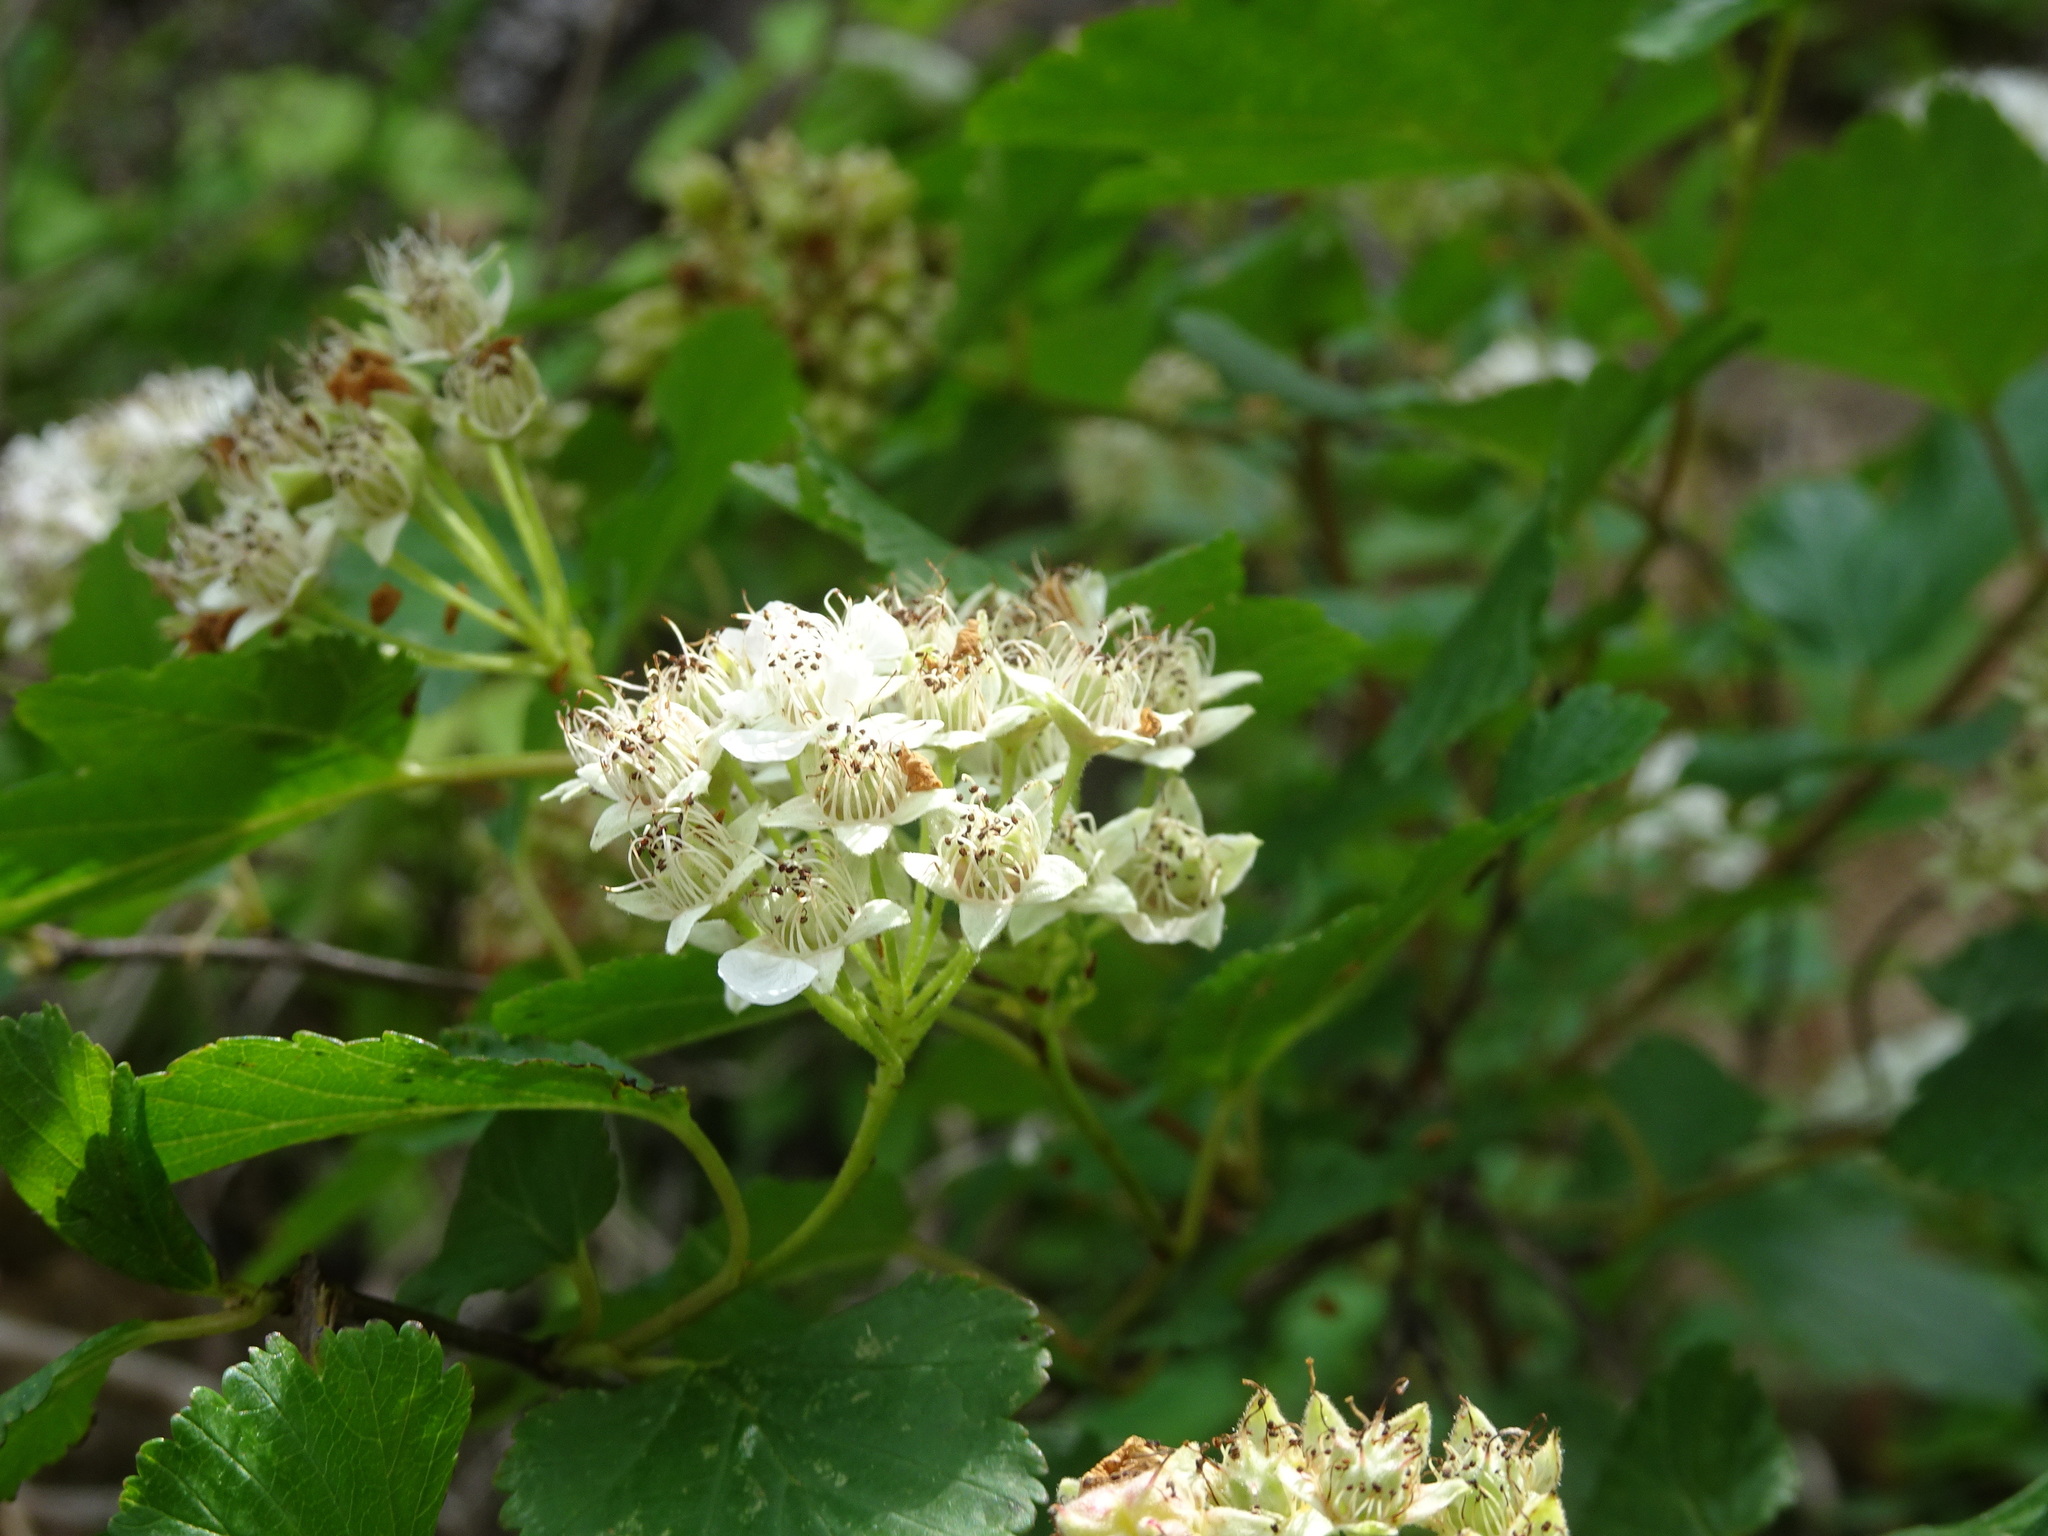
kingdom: Plantae
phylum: Tracheophyta
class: Magnoliopsida
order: Rosales
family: Rosaceae
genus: Physocarpus
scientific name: Physocarpus intermedius
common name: Midwestern ninebark
